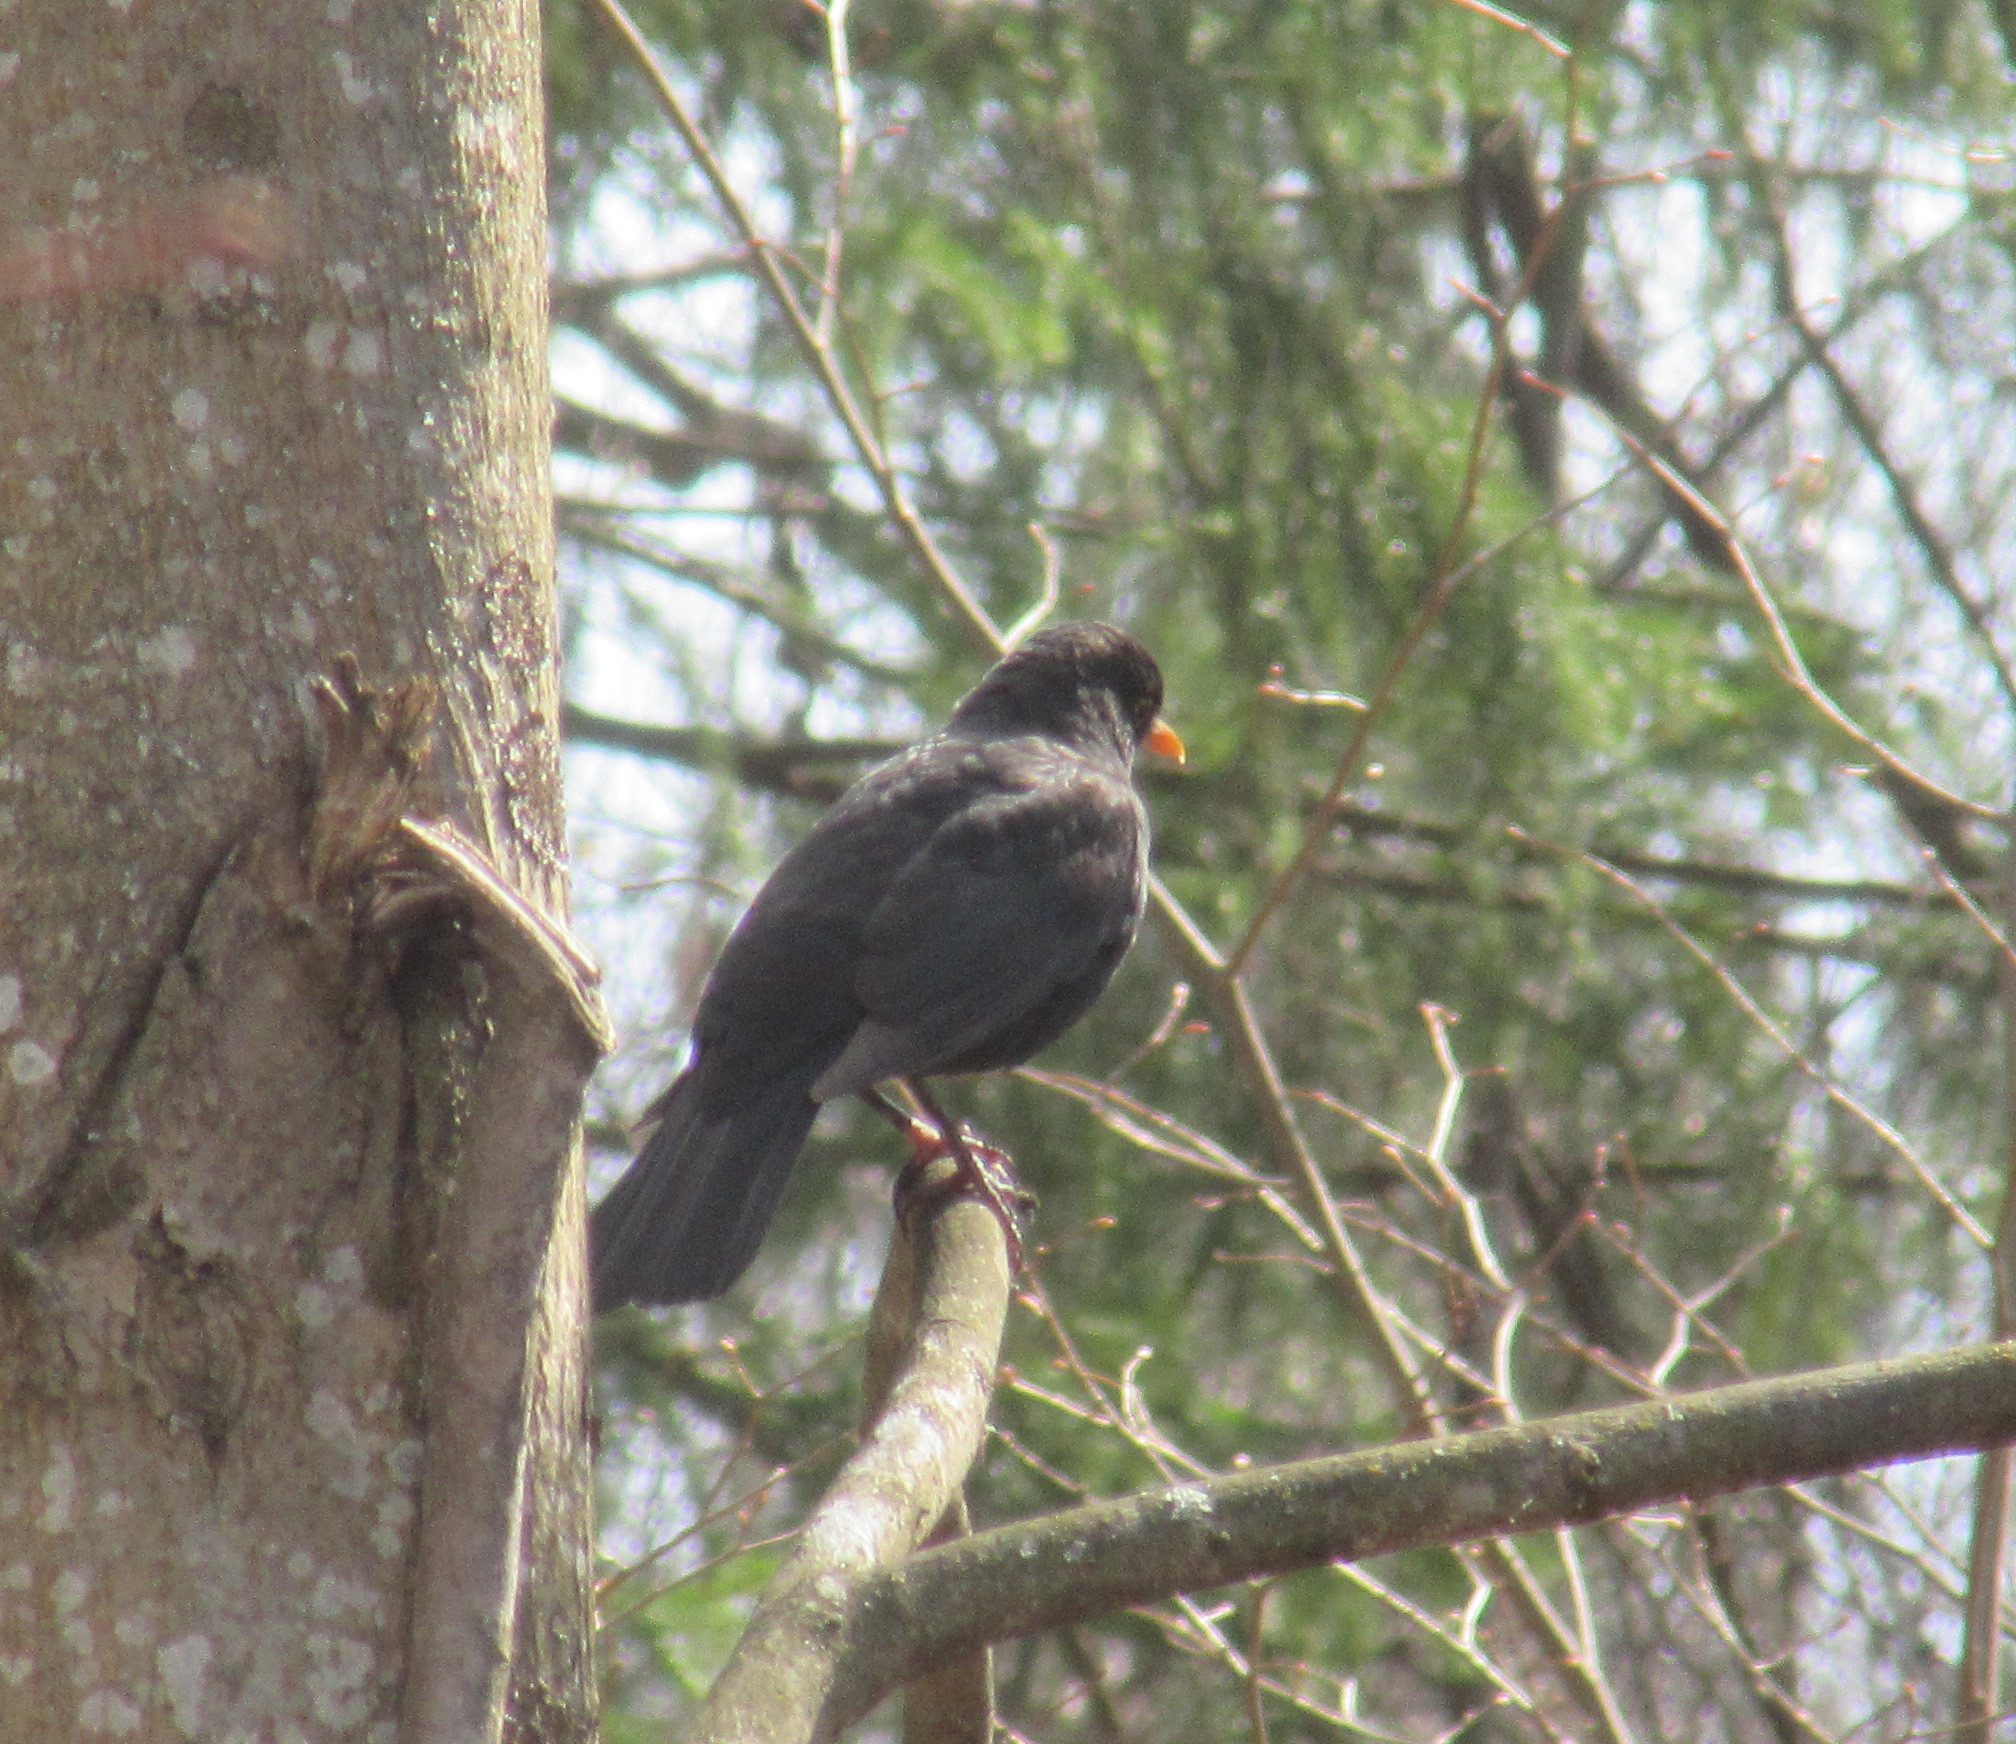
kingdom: Animalia
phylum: Chordata
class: Aves
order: Passeriformes
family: Turdidae
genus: Turdus
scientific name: Turdus merula
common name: Common blackbird
